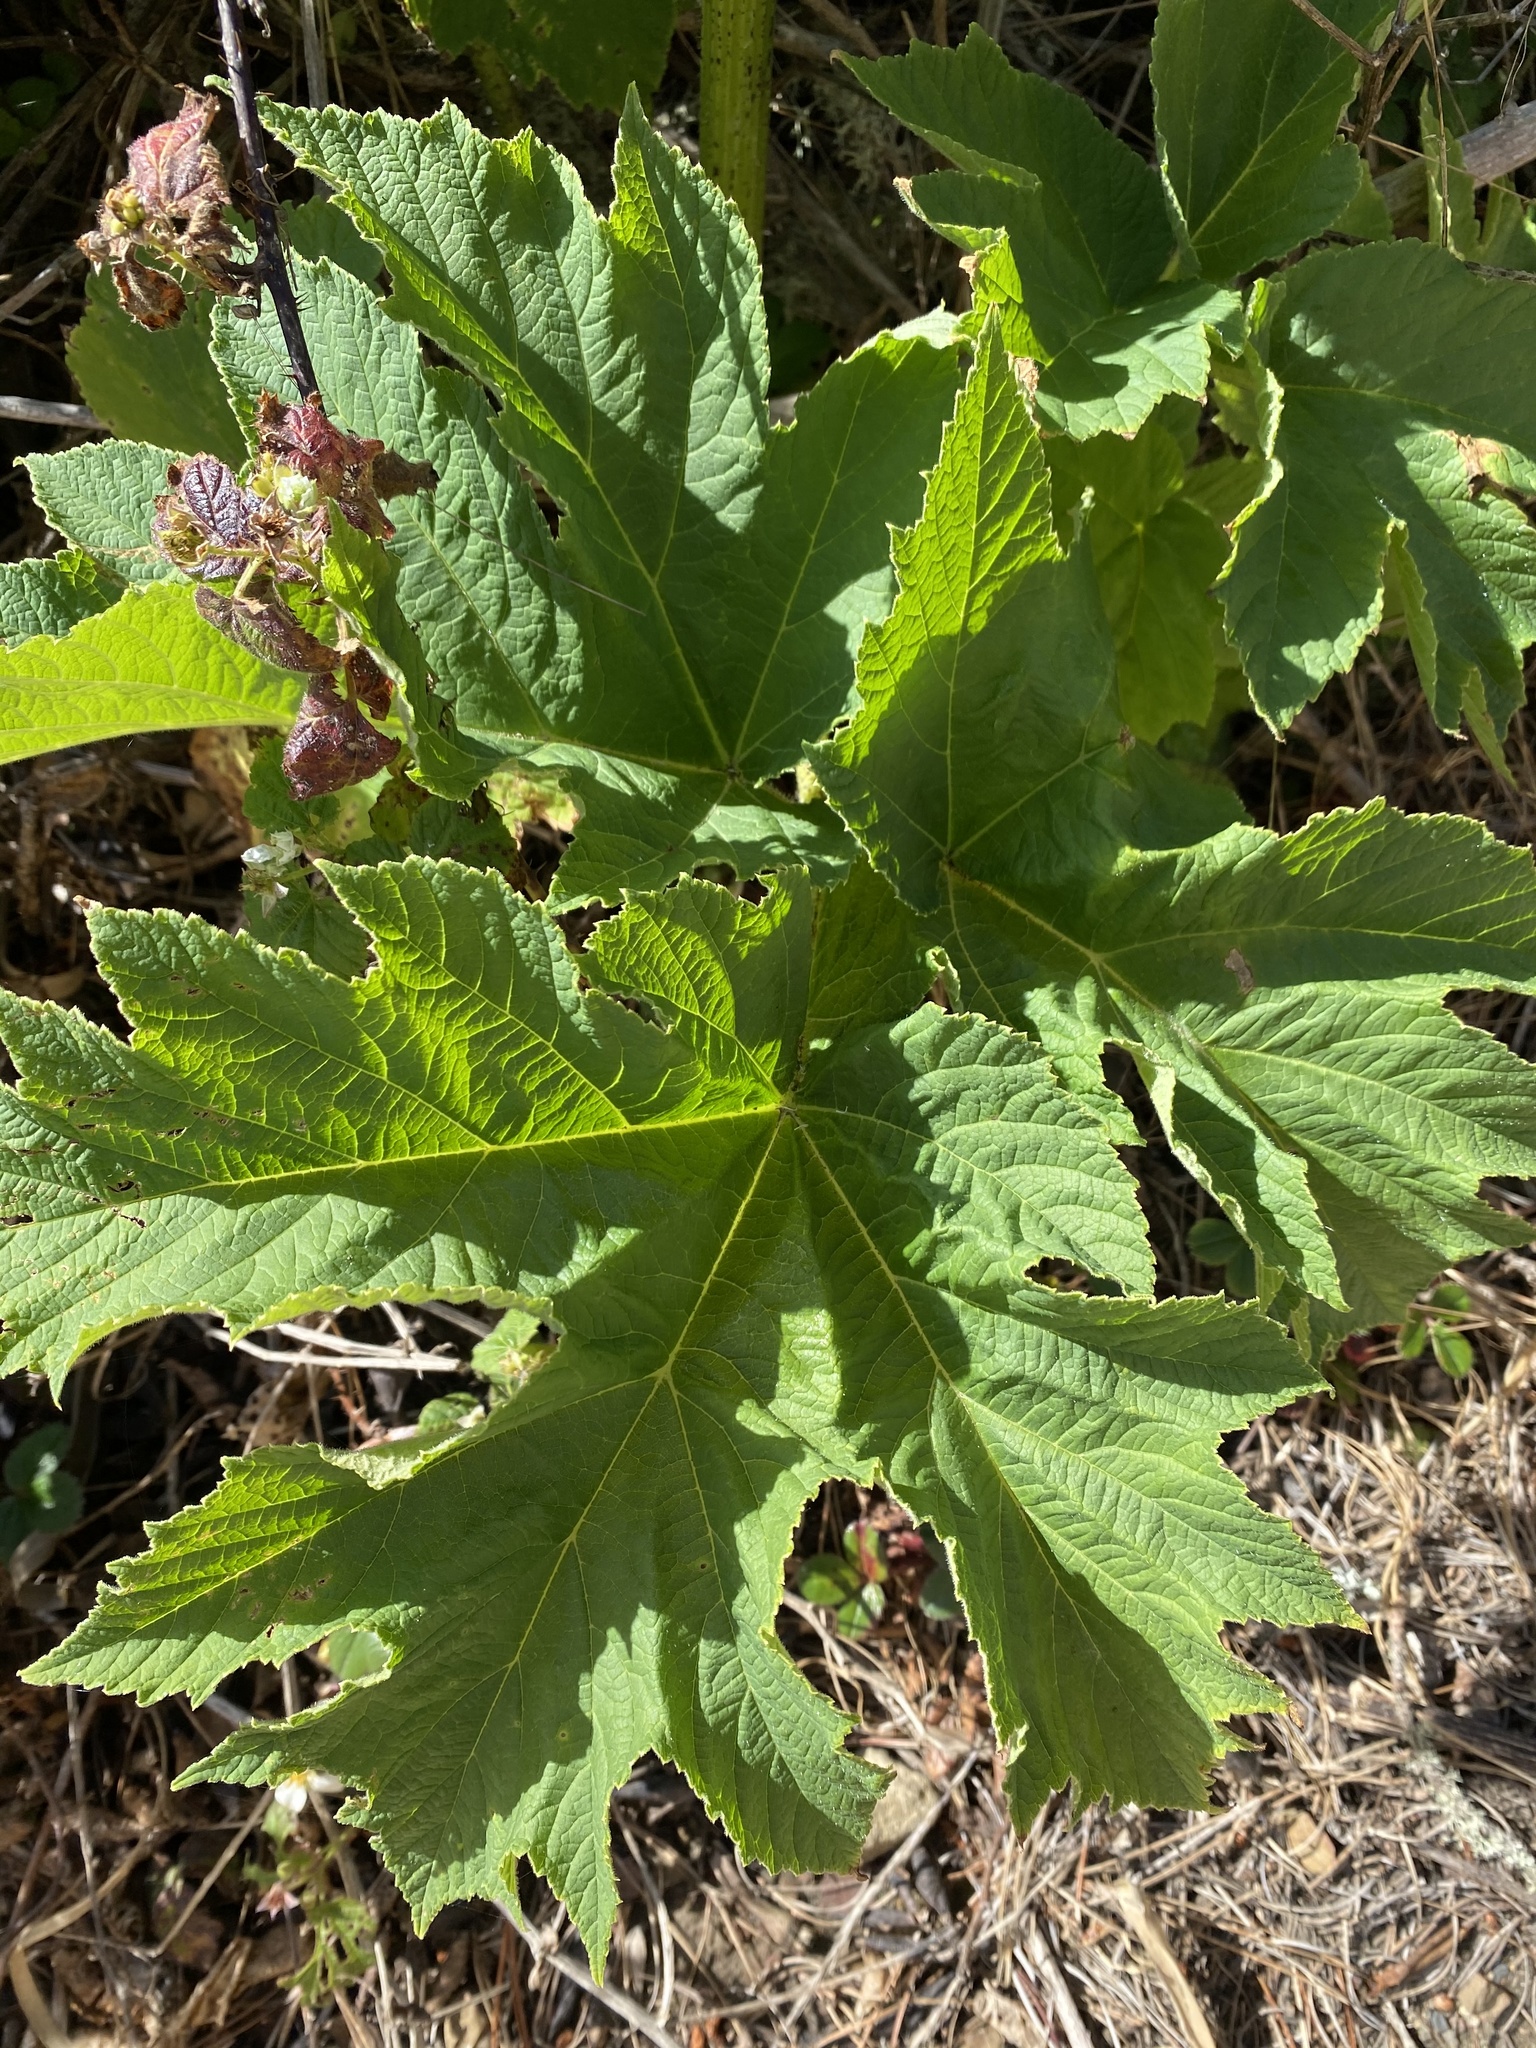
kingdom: Plantae
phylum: Tracheophyta
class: Magnoliopsida
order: Apiales
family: Apiaceae
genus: Heracleum
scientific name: Heracleum maximum
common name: American cow parsnip
